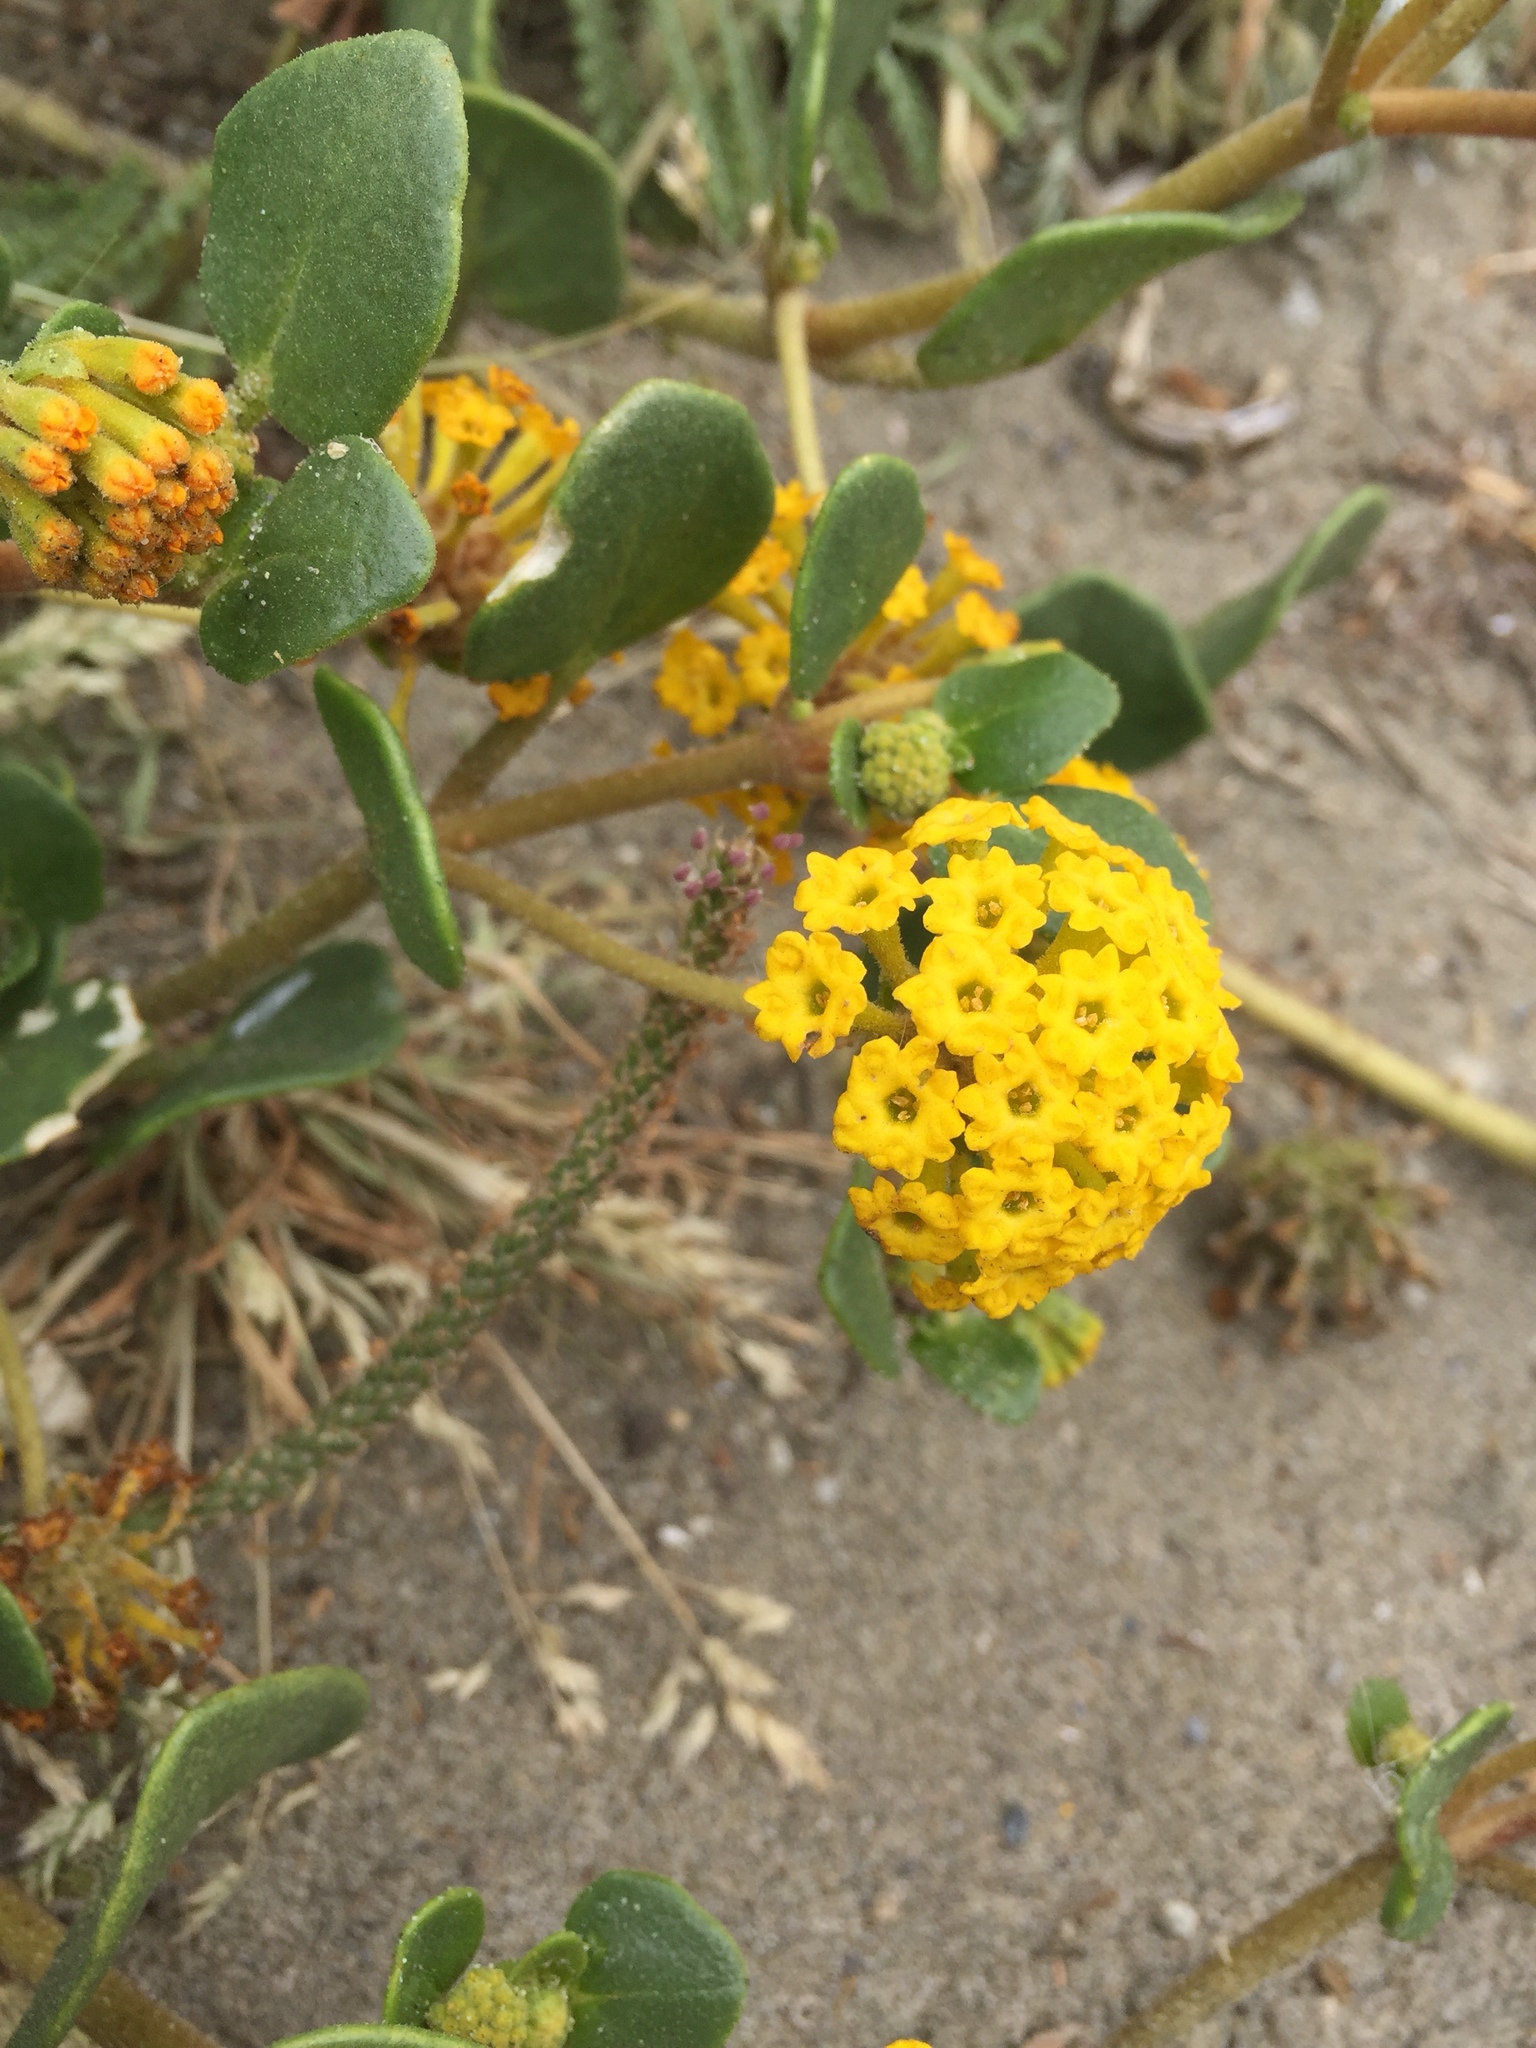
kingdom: Plantae
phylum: Tracheophyta
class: Magnoliopsida
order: Caryophyllales
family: Nyctaginaceae
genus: Abronia
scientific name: Abronia latifolia
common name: Yellow sand-verbena
